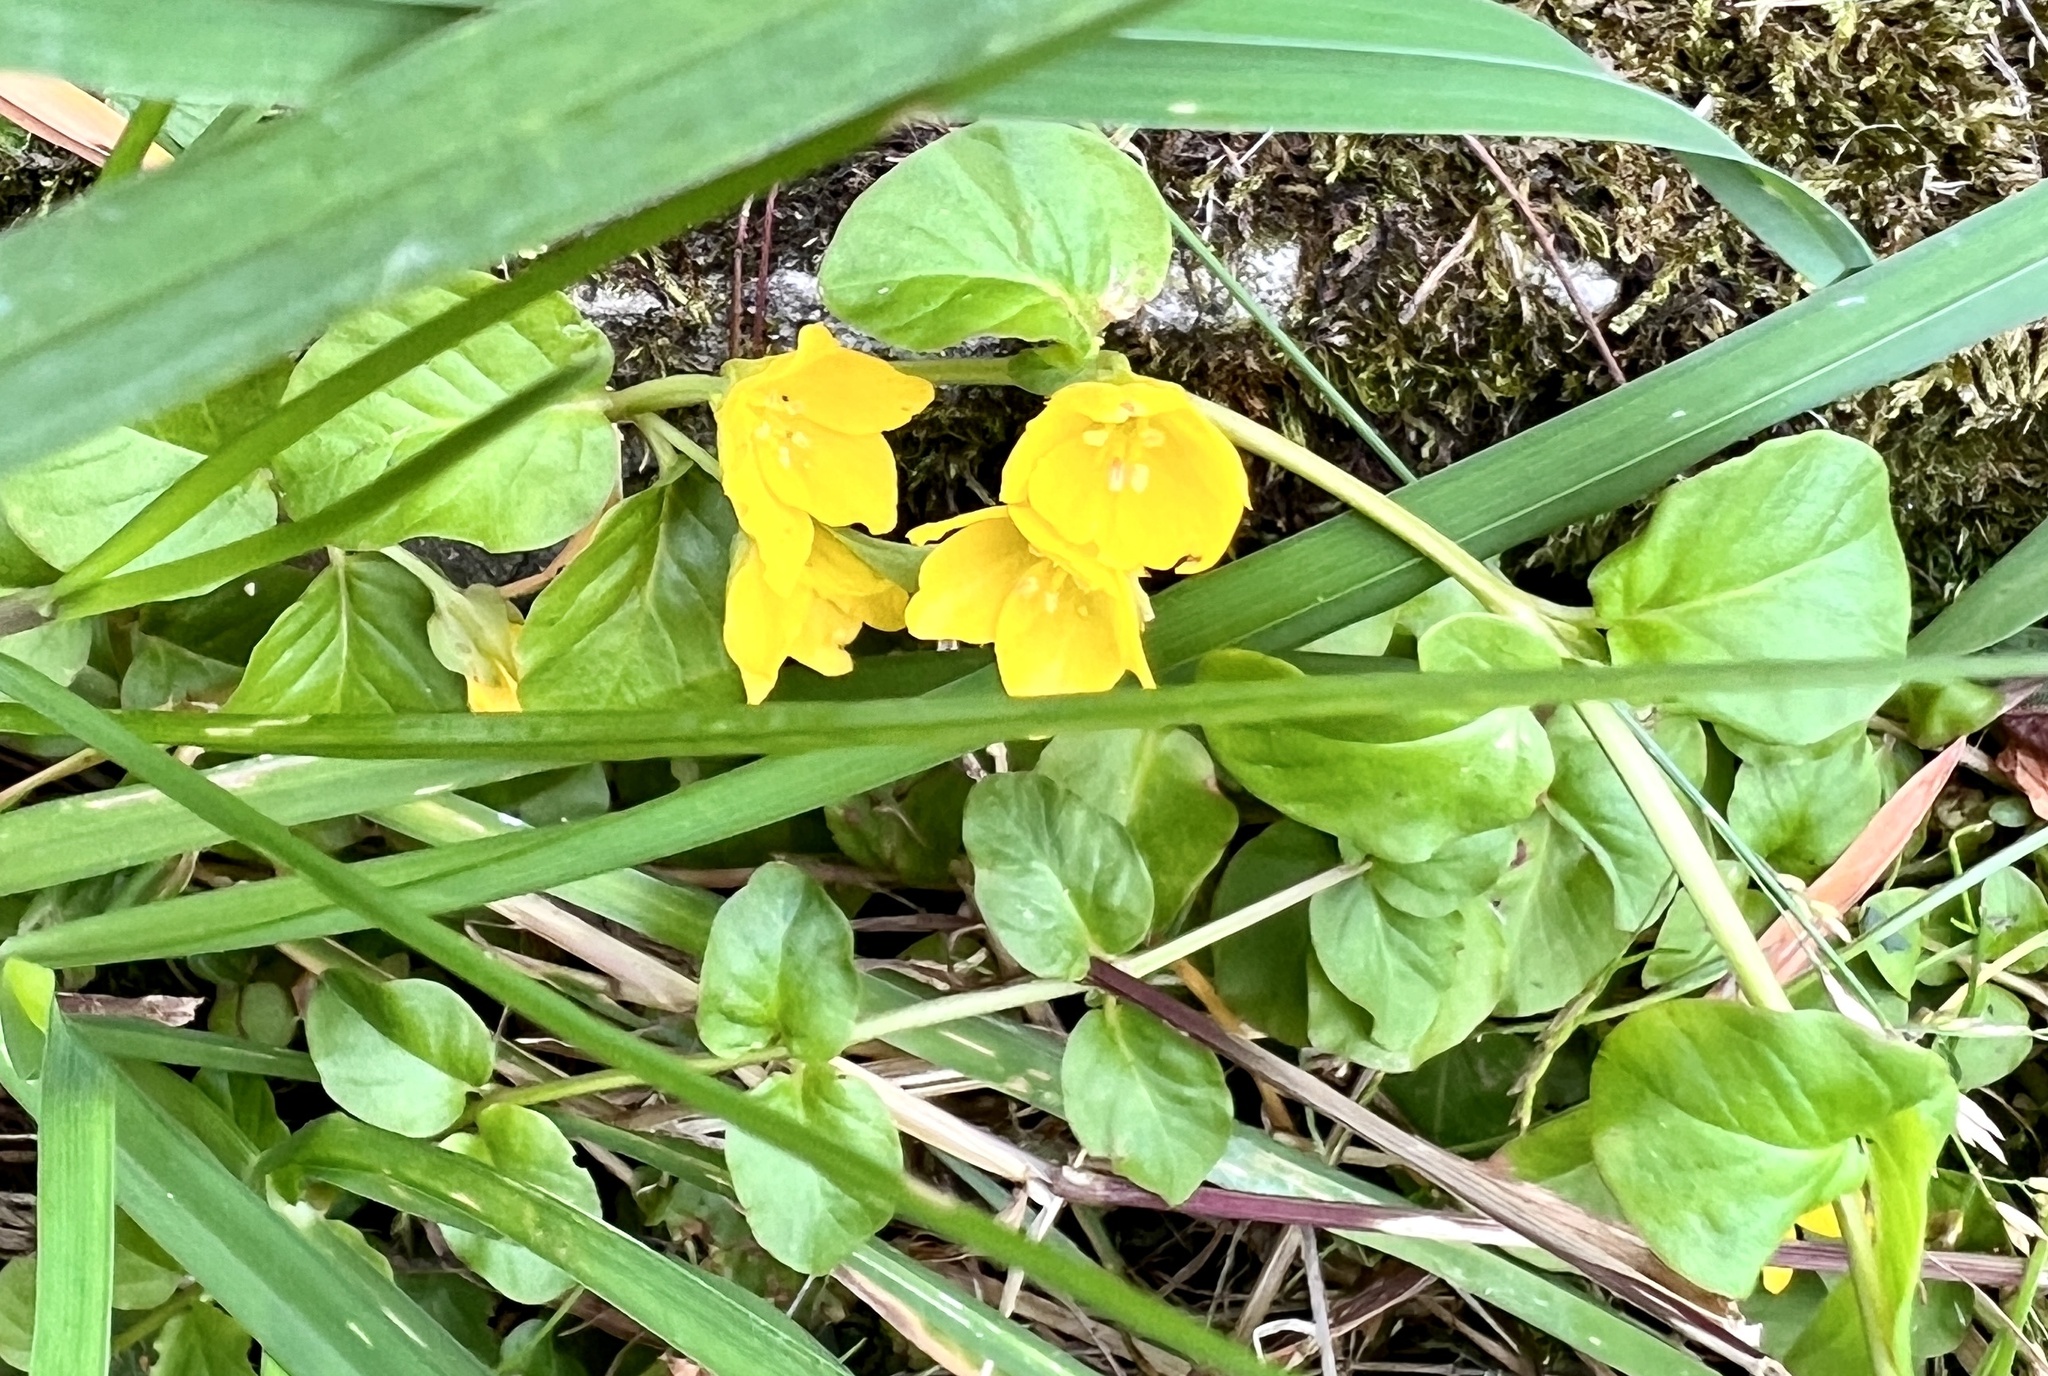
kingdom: Plantae
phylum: Tracheophyta
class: Magnoliopsida
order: Ericales
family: Primulaceae
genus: Lysimachia
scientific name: Lysimachia nummularia
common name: Moneywort
